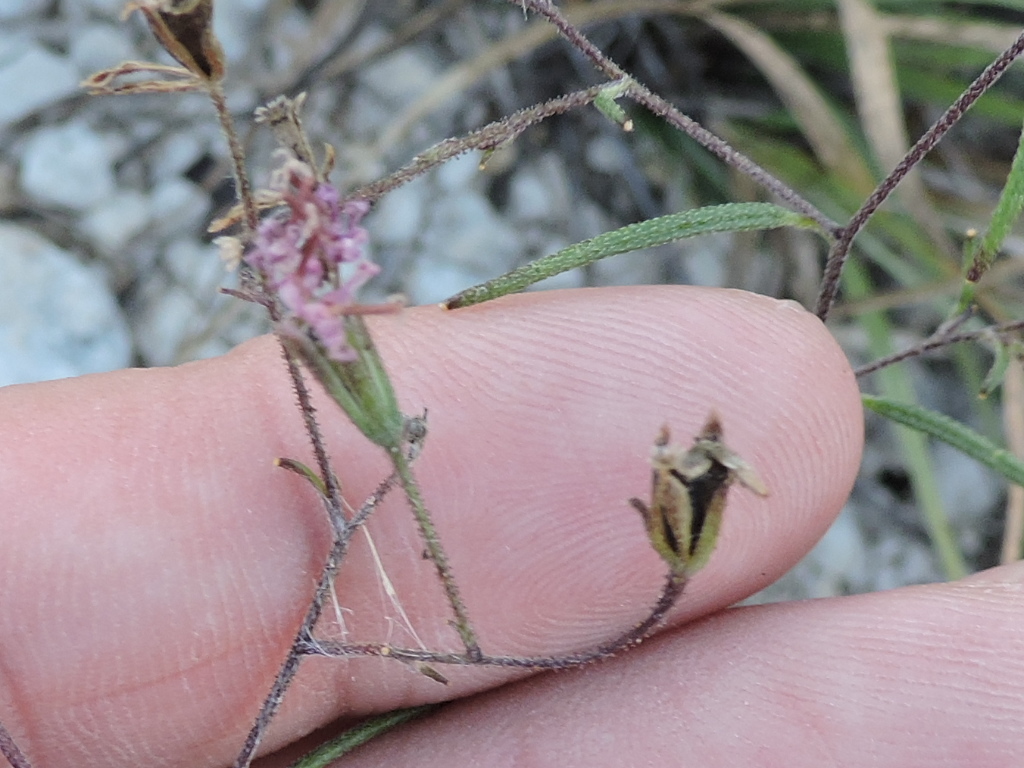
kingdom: Plantae
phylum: Tracheophyta
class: Magnoliopsida
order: Asterales
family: Asteraceae
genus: Palafoxia
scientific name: Palafoxia callosa
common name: Small palafox
